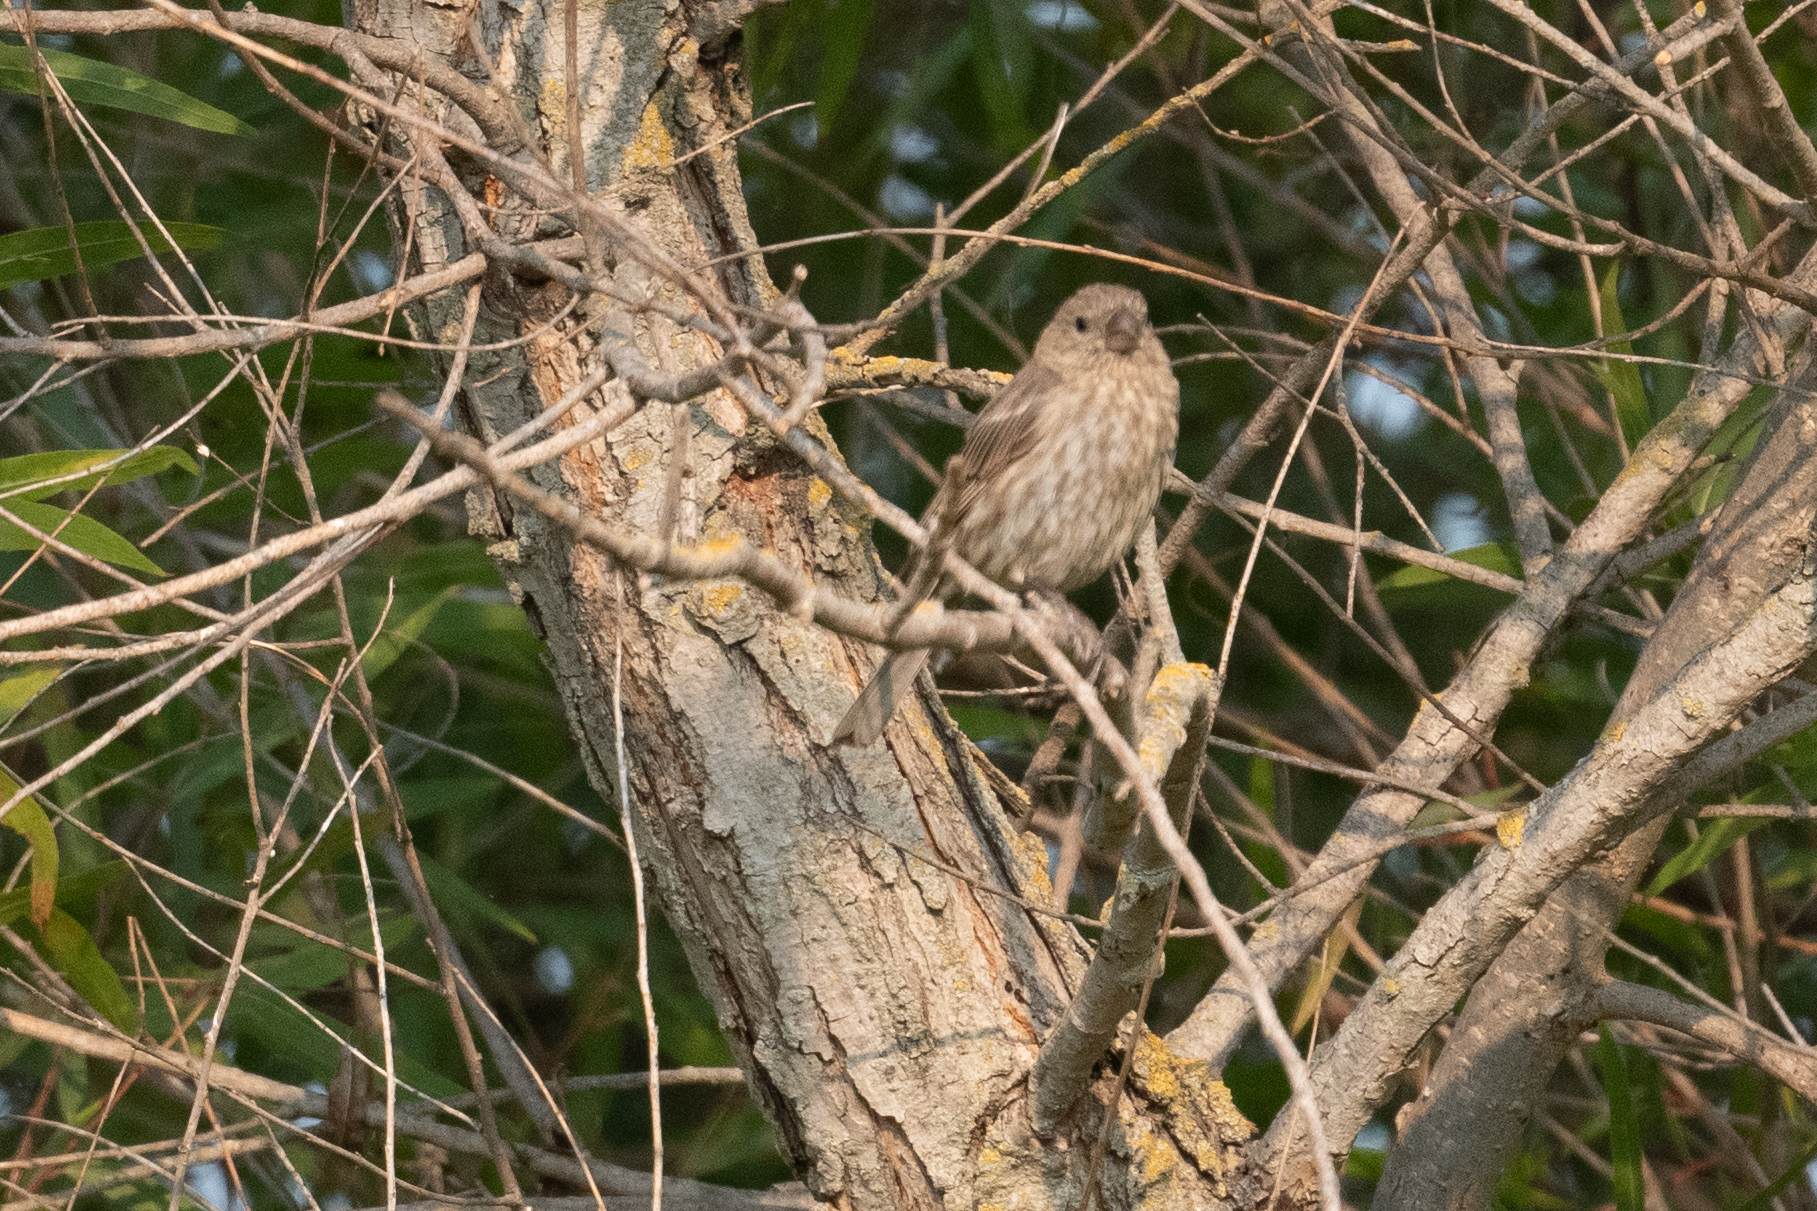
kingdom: Animalia
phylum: Chordata
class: Aves
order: Passeriformes
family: Fringillidae
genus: Haemorhous
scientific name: Haemorhous mexicanus
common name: House finch
